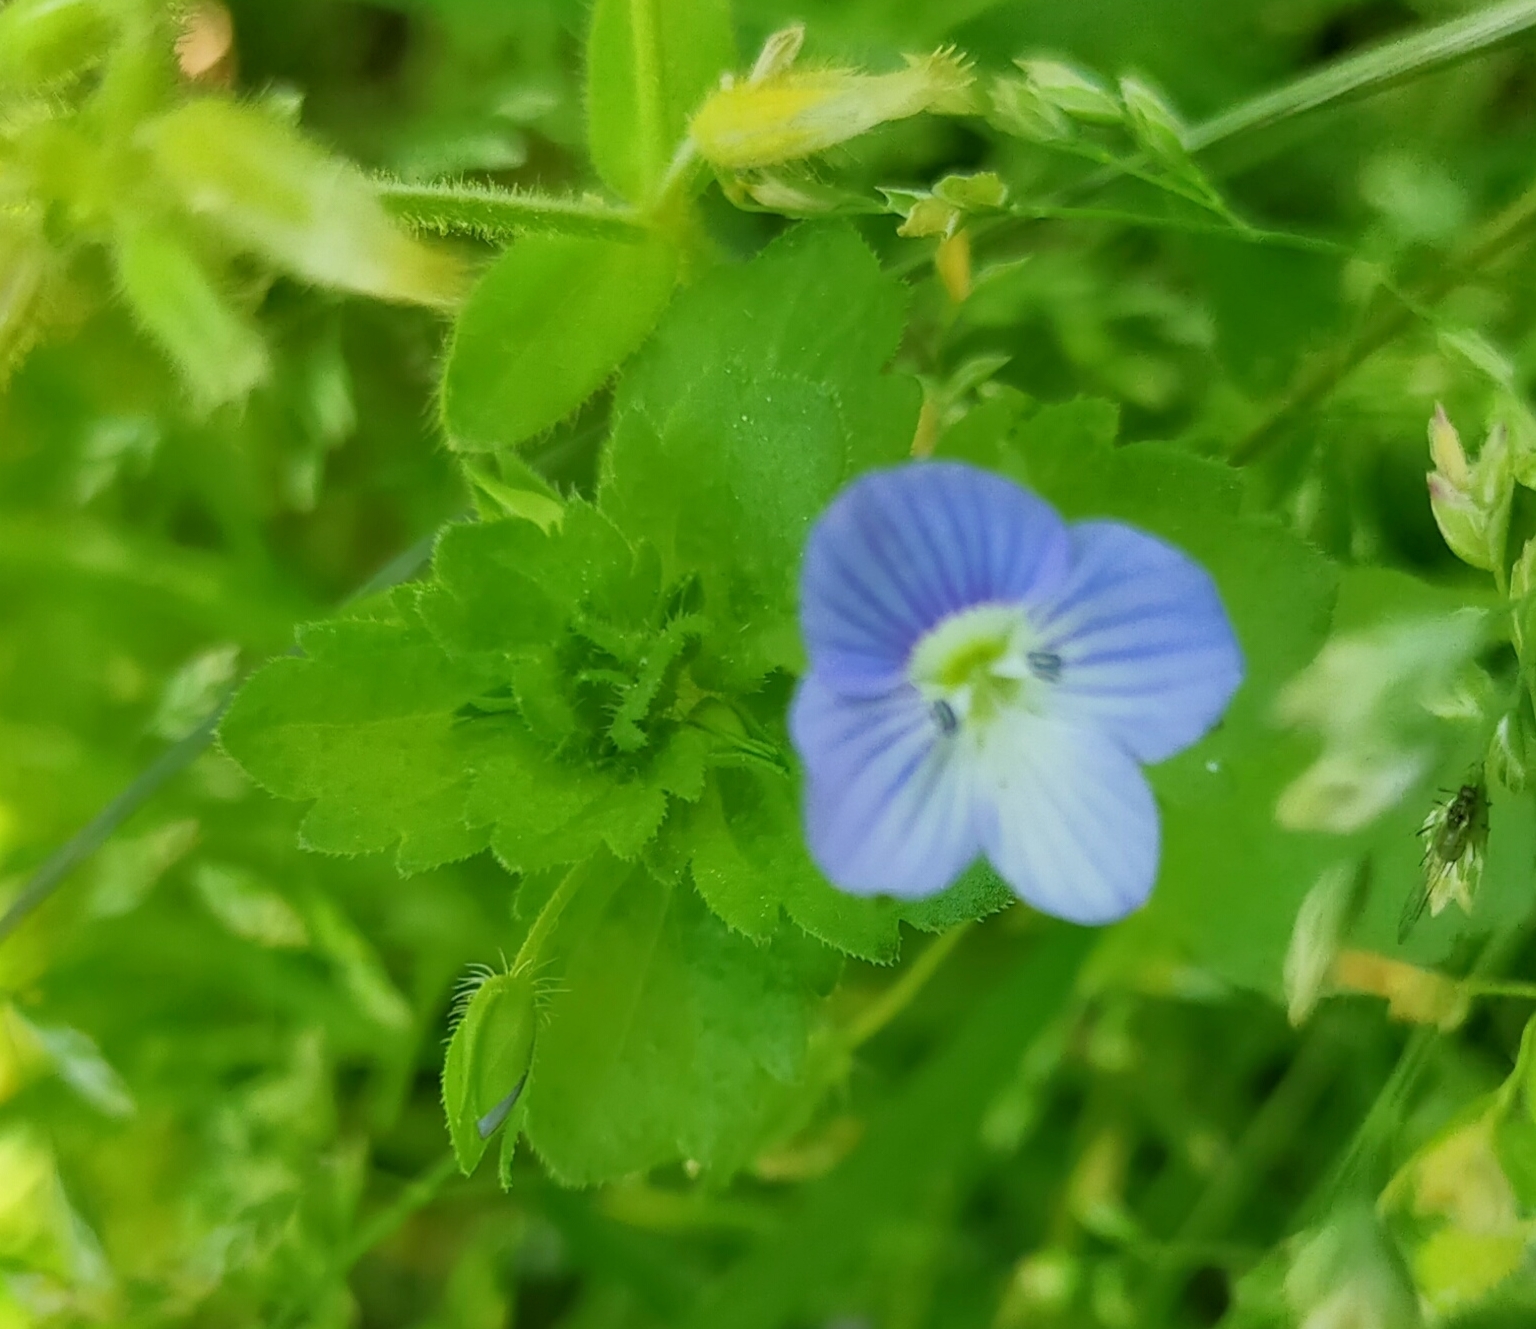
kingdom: Plantae
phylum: Tracheophyta
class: Magnoliopsida
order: Lamiales
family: Plantaginaceae
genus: Veronica
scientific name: Veronica persica
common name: Common field-speedwell
